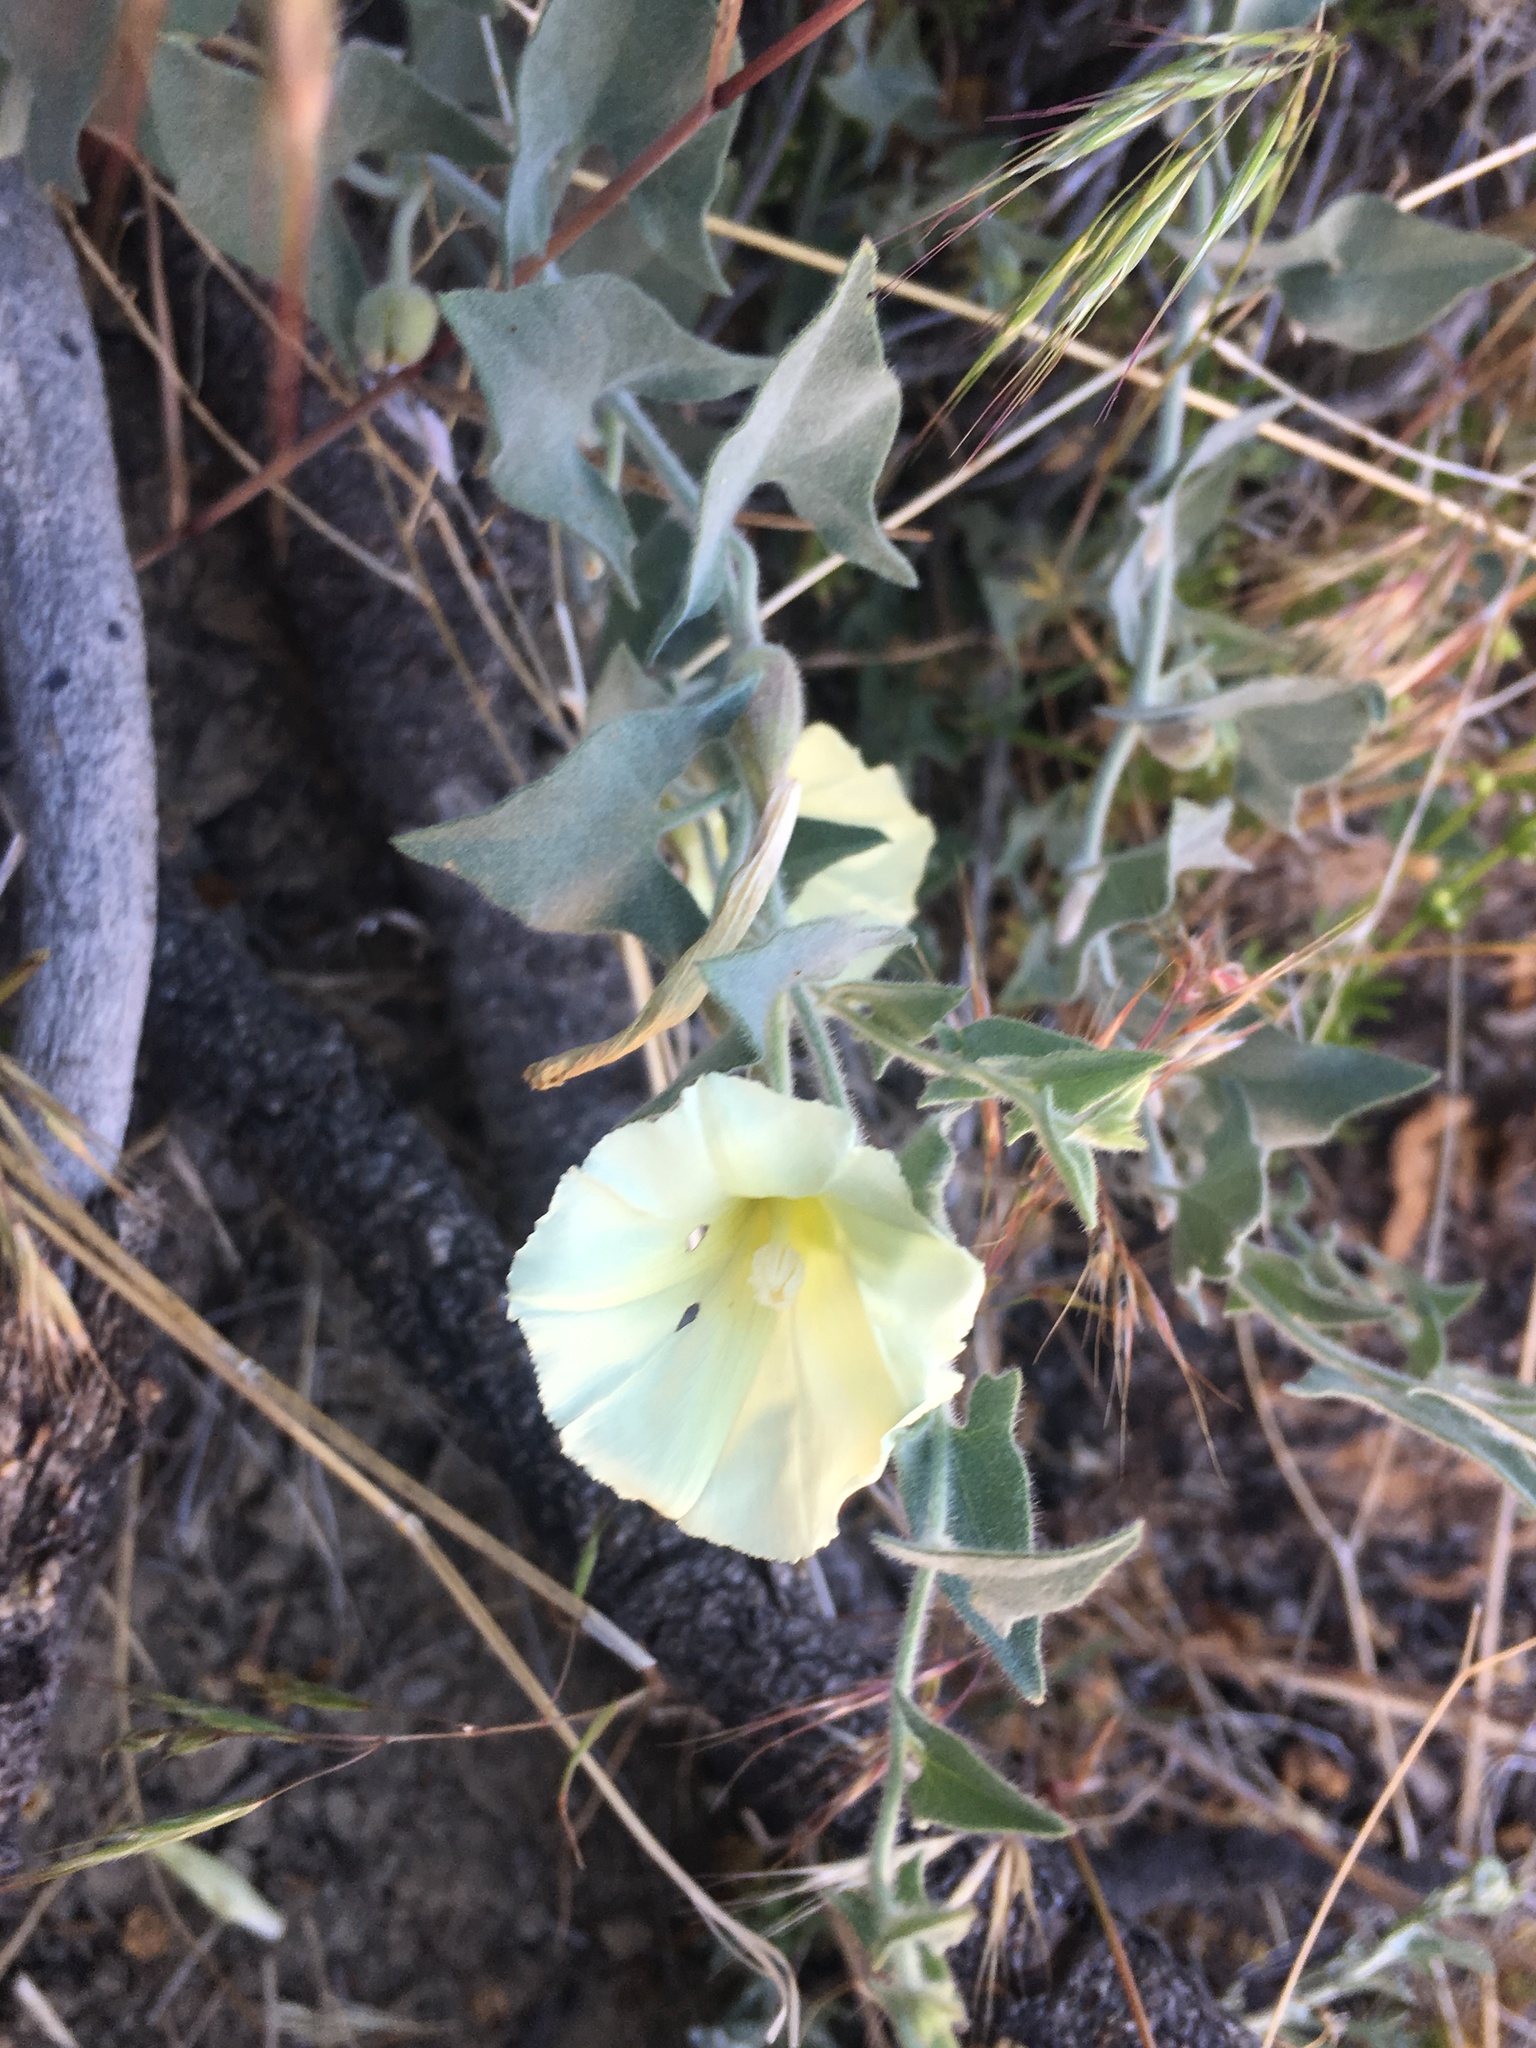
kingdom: Plantae
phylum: Tracheophyta
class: Magnoliopsida
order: Solanales
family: Convolvulaceae
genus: Calystegia
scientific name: Calystegia malacophylla
